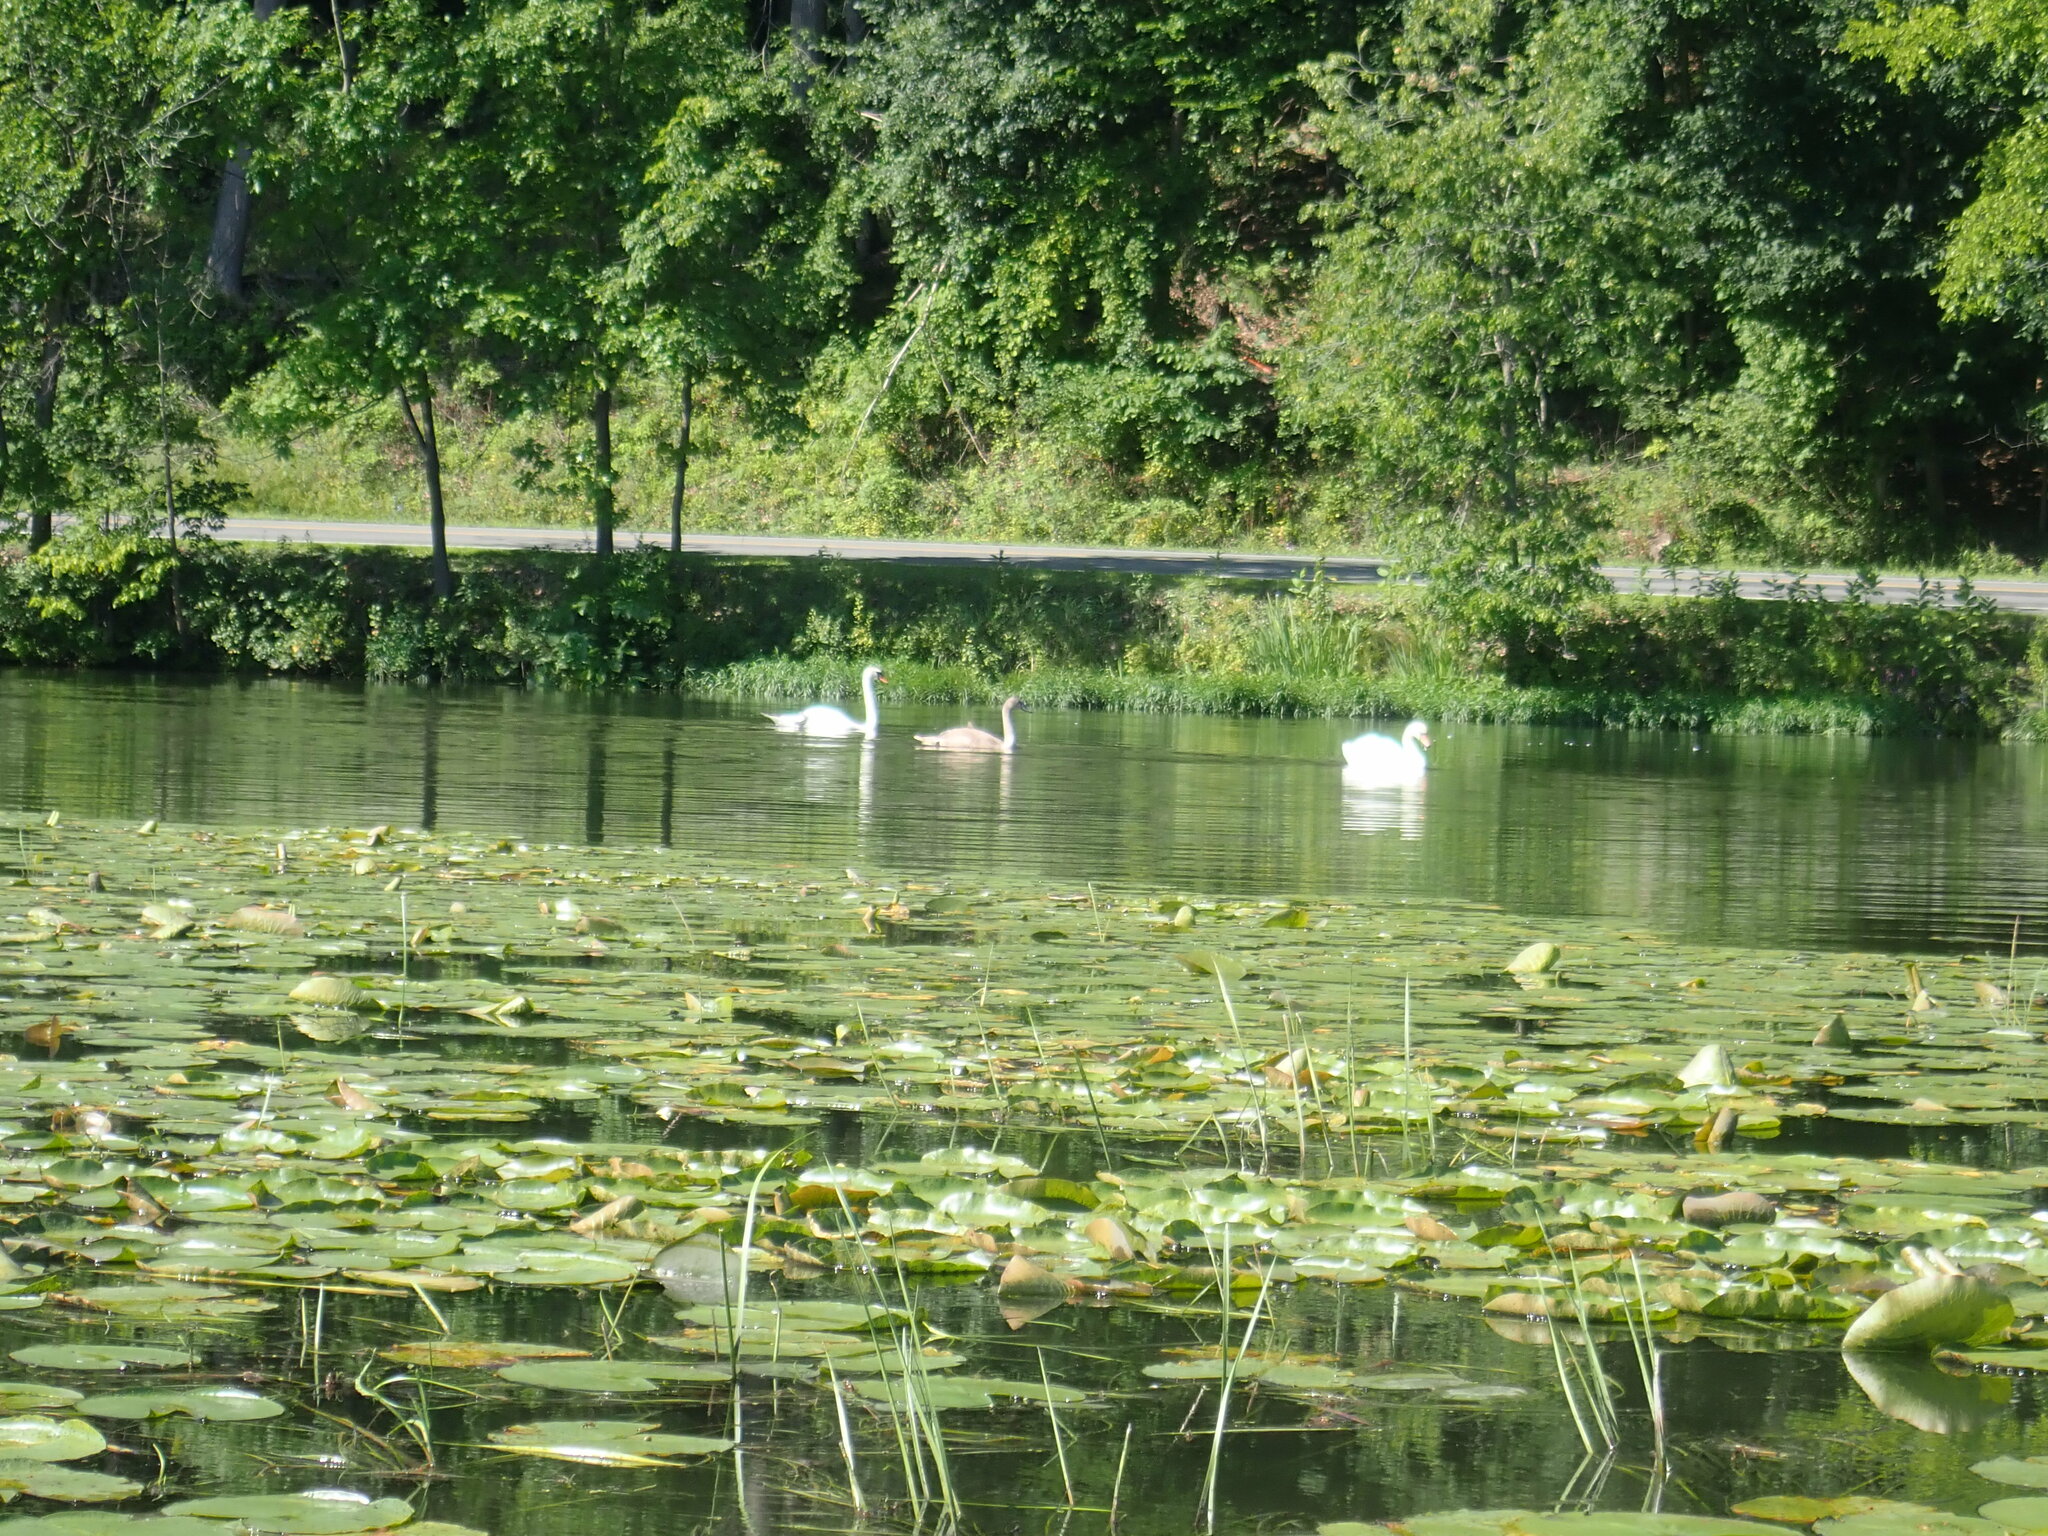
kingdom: Animalia
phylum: Chordata
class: Aves
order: Anseriformes
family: Anatidae
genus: Cygnus
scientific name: Cygnus olor
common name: Mute swan
